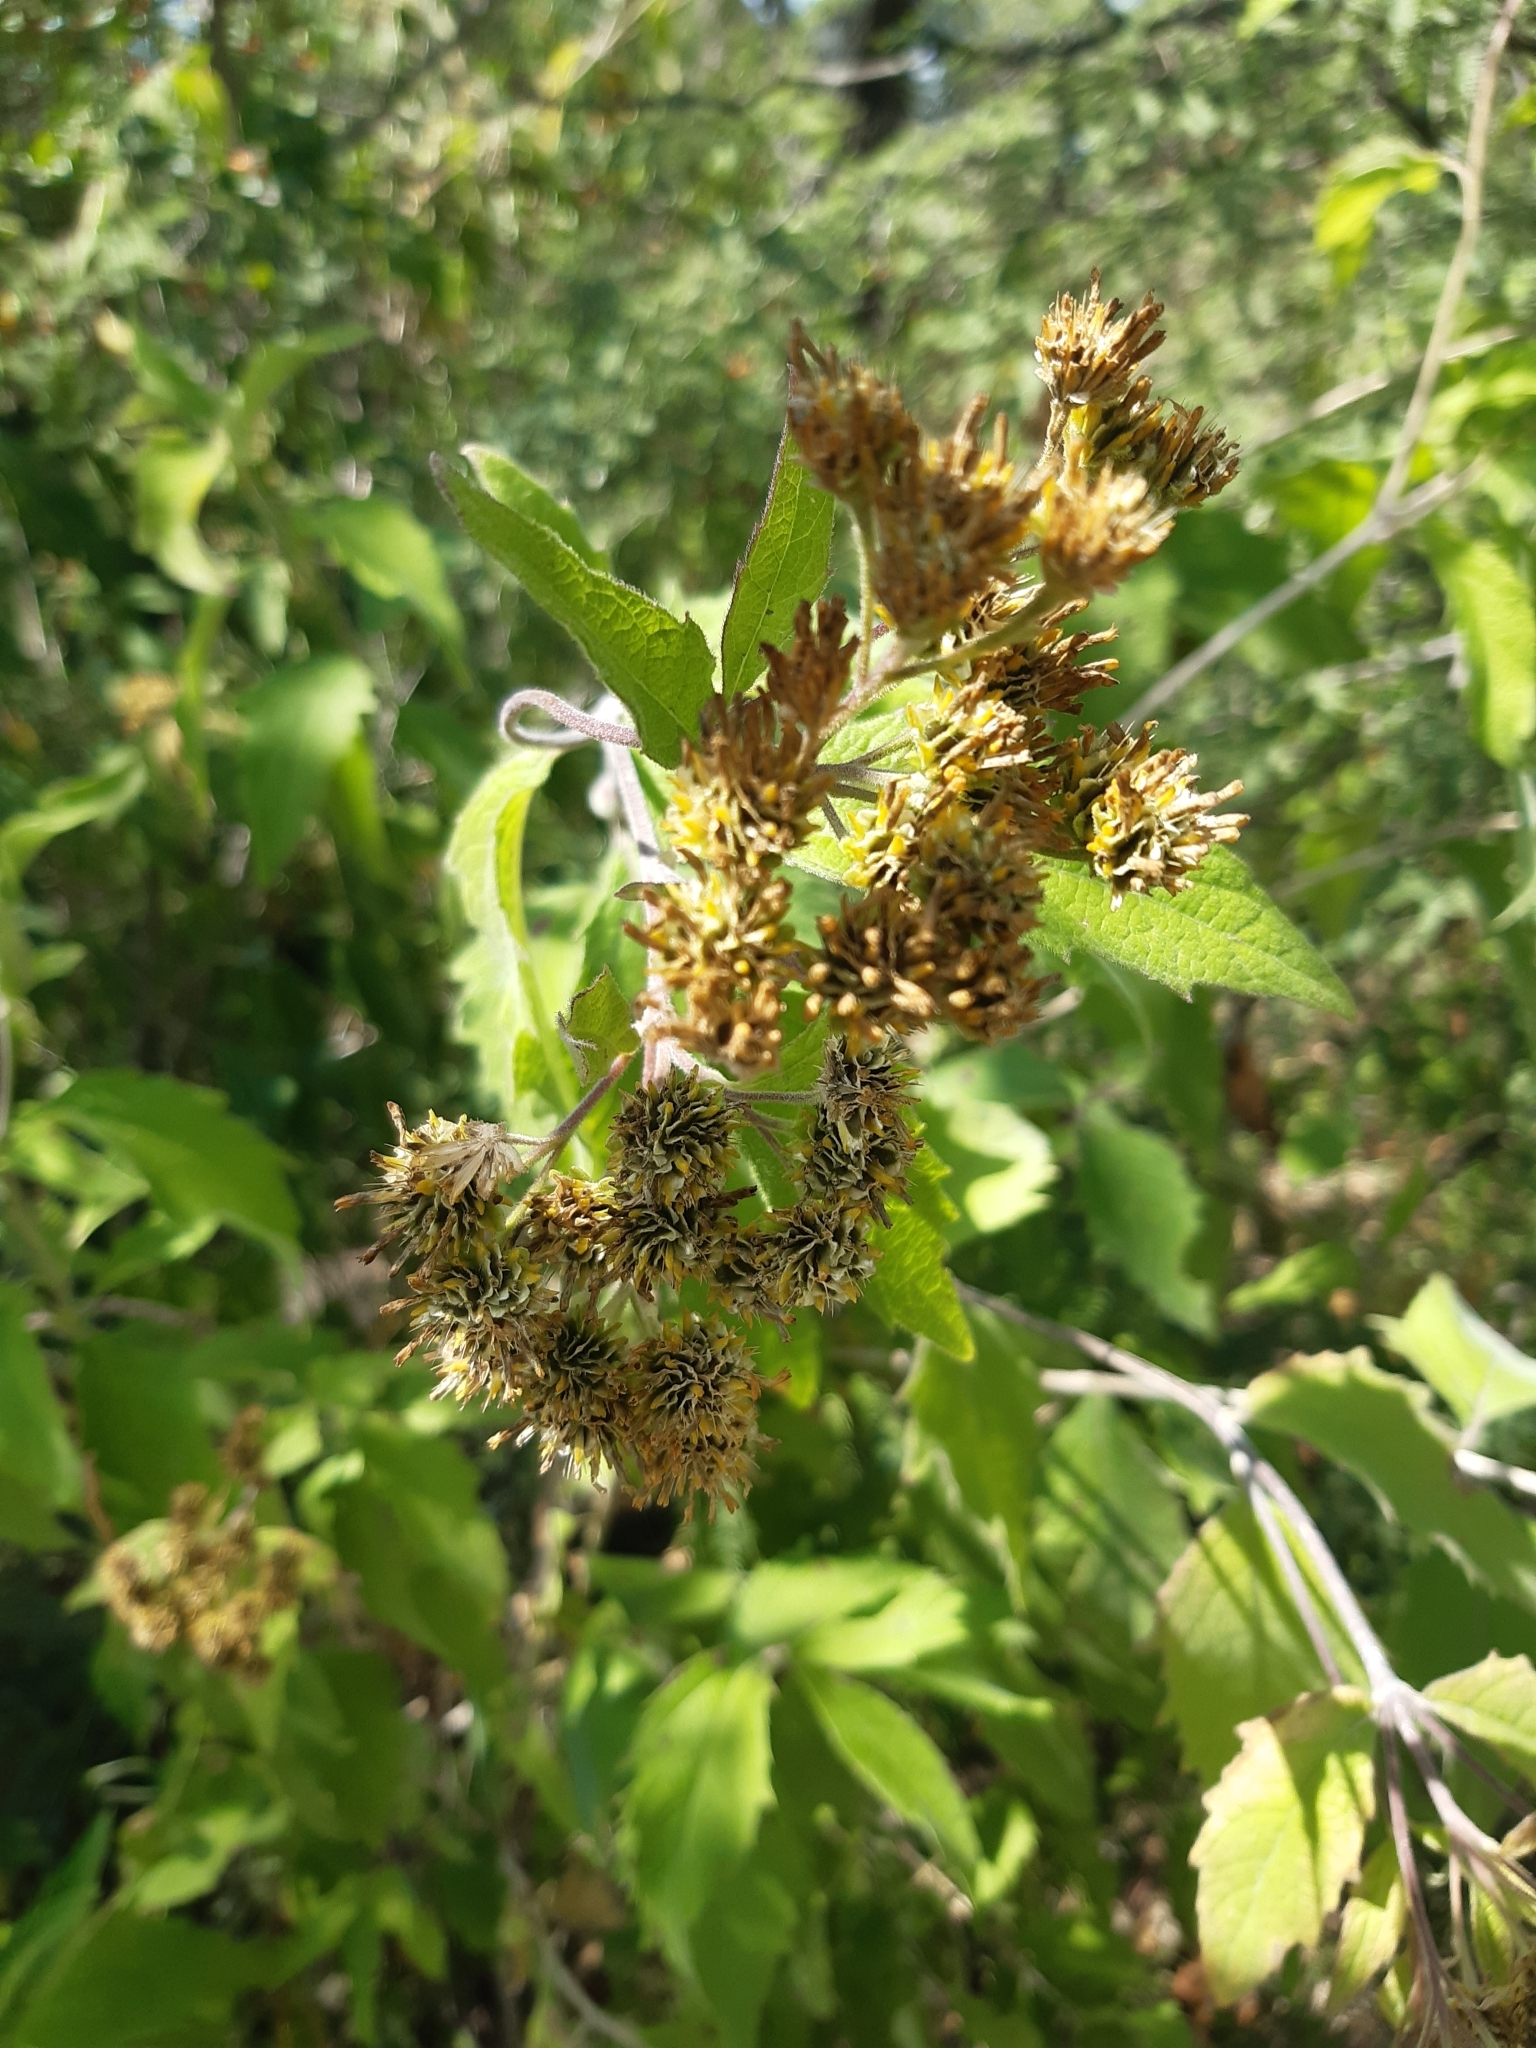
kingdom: Plantae
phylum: Tracheophyta
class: Magnoliopsida
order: Asterales
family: Asteraceae
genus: Verbesina
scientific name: Verbesina serrata
